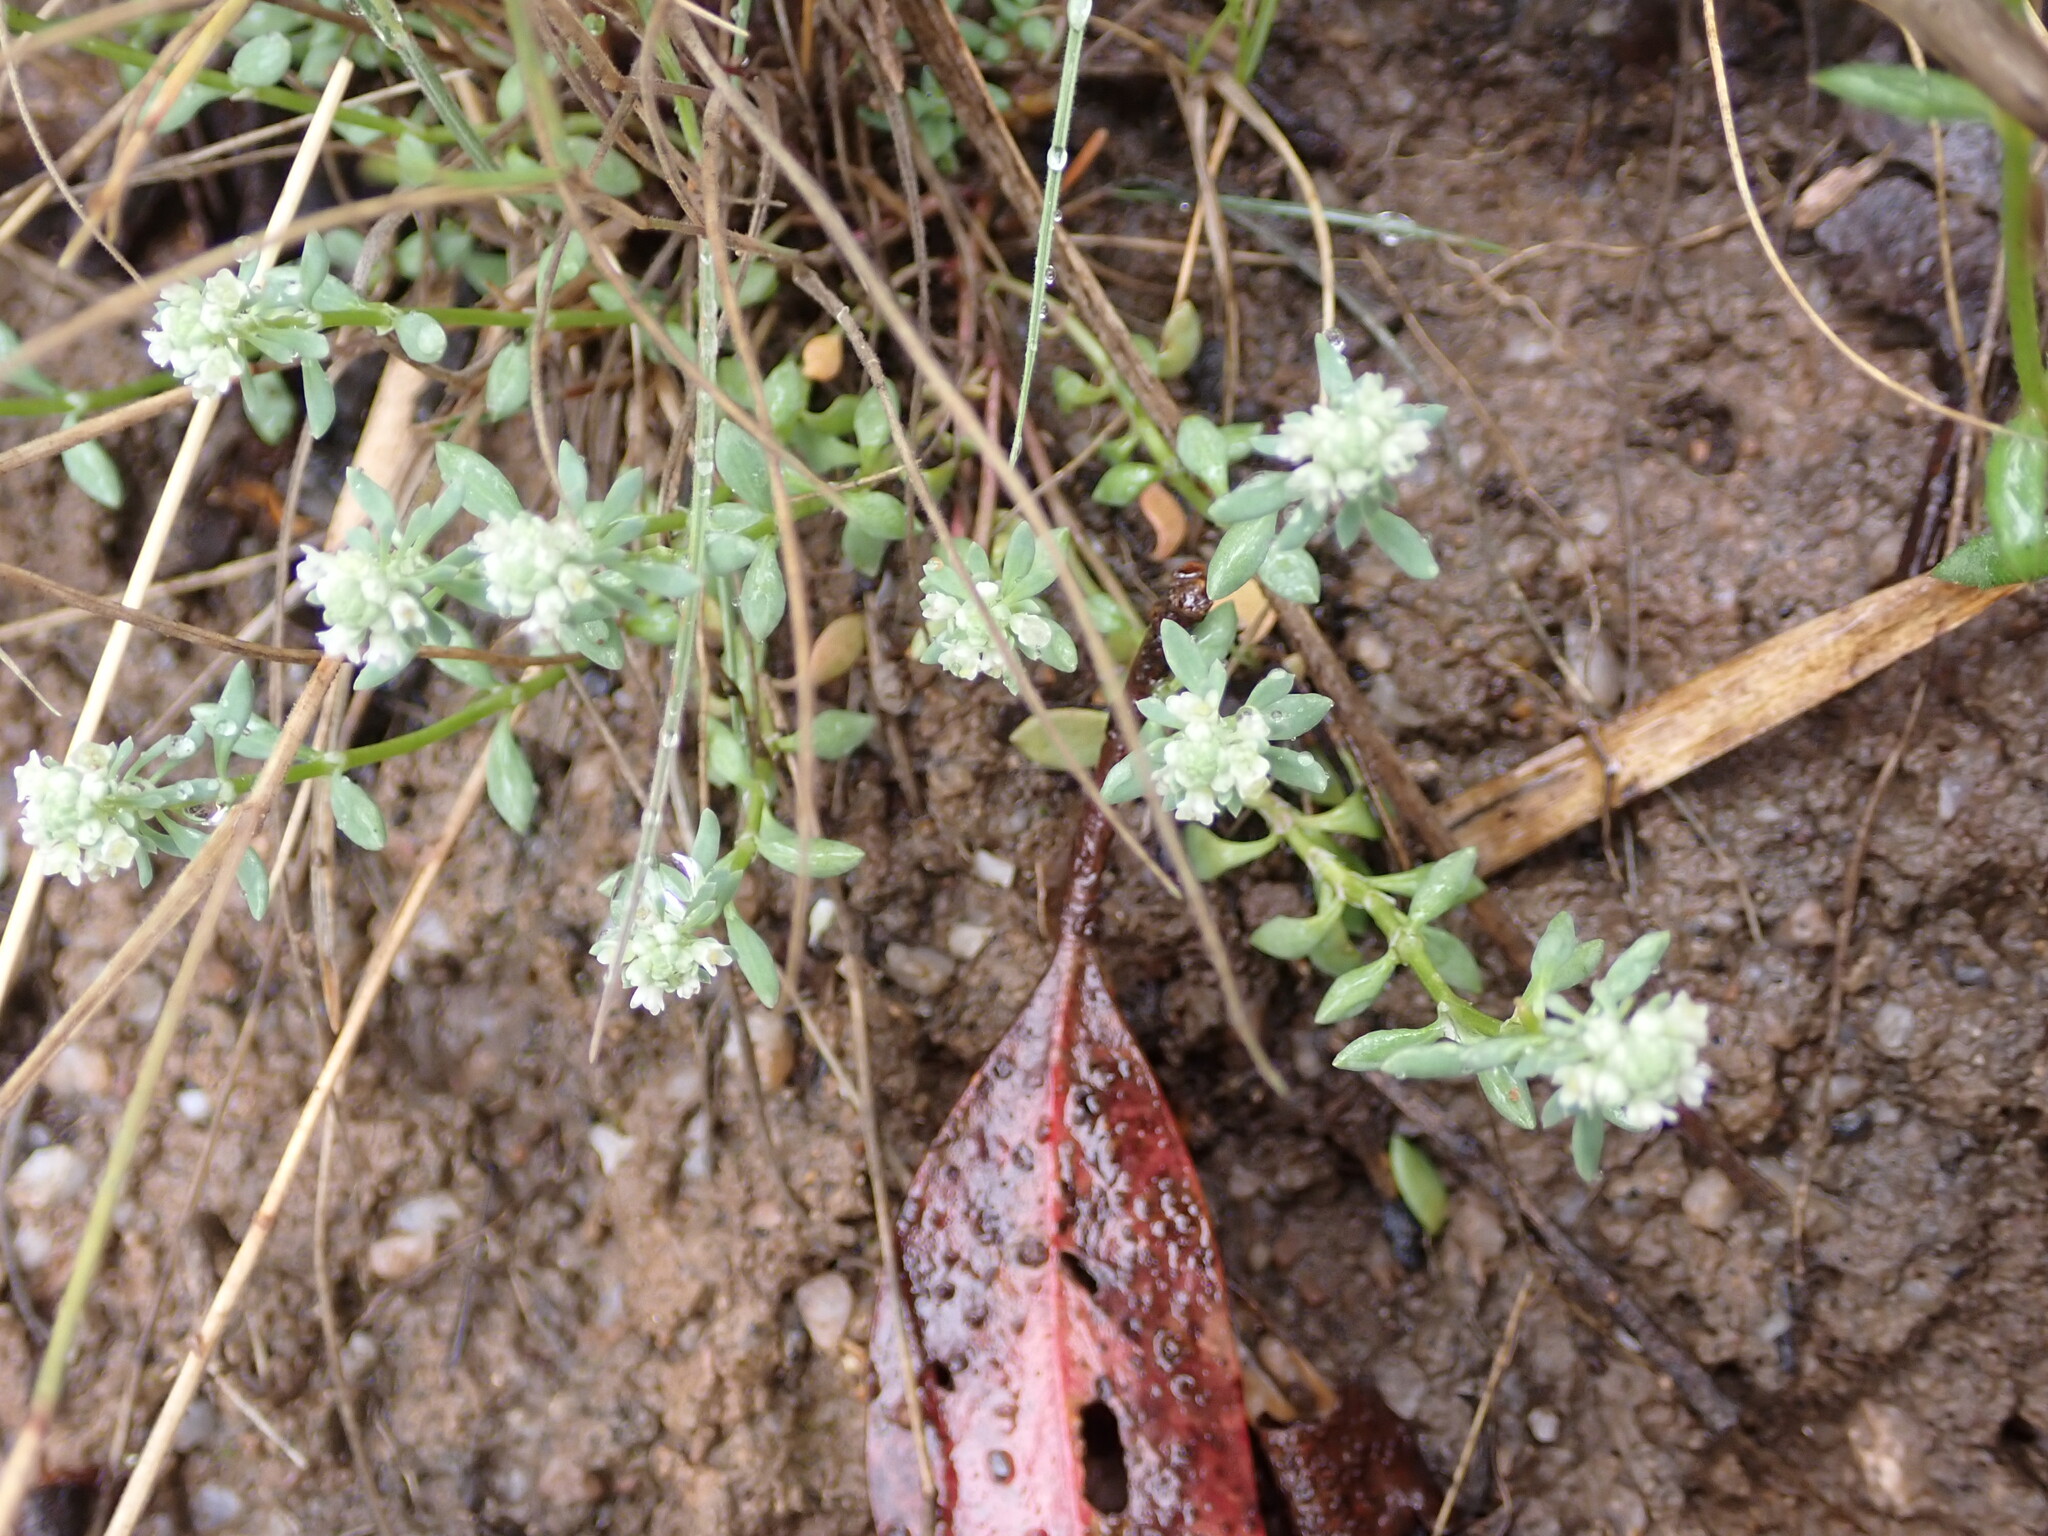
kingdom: Plantae
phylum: Tracheophyta
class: Magnoliopsida
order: Malpighiales
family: Phyllanthaceae
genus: Poranthera
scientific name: Poranthera microphylla
